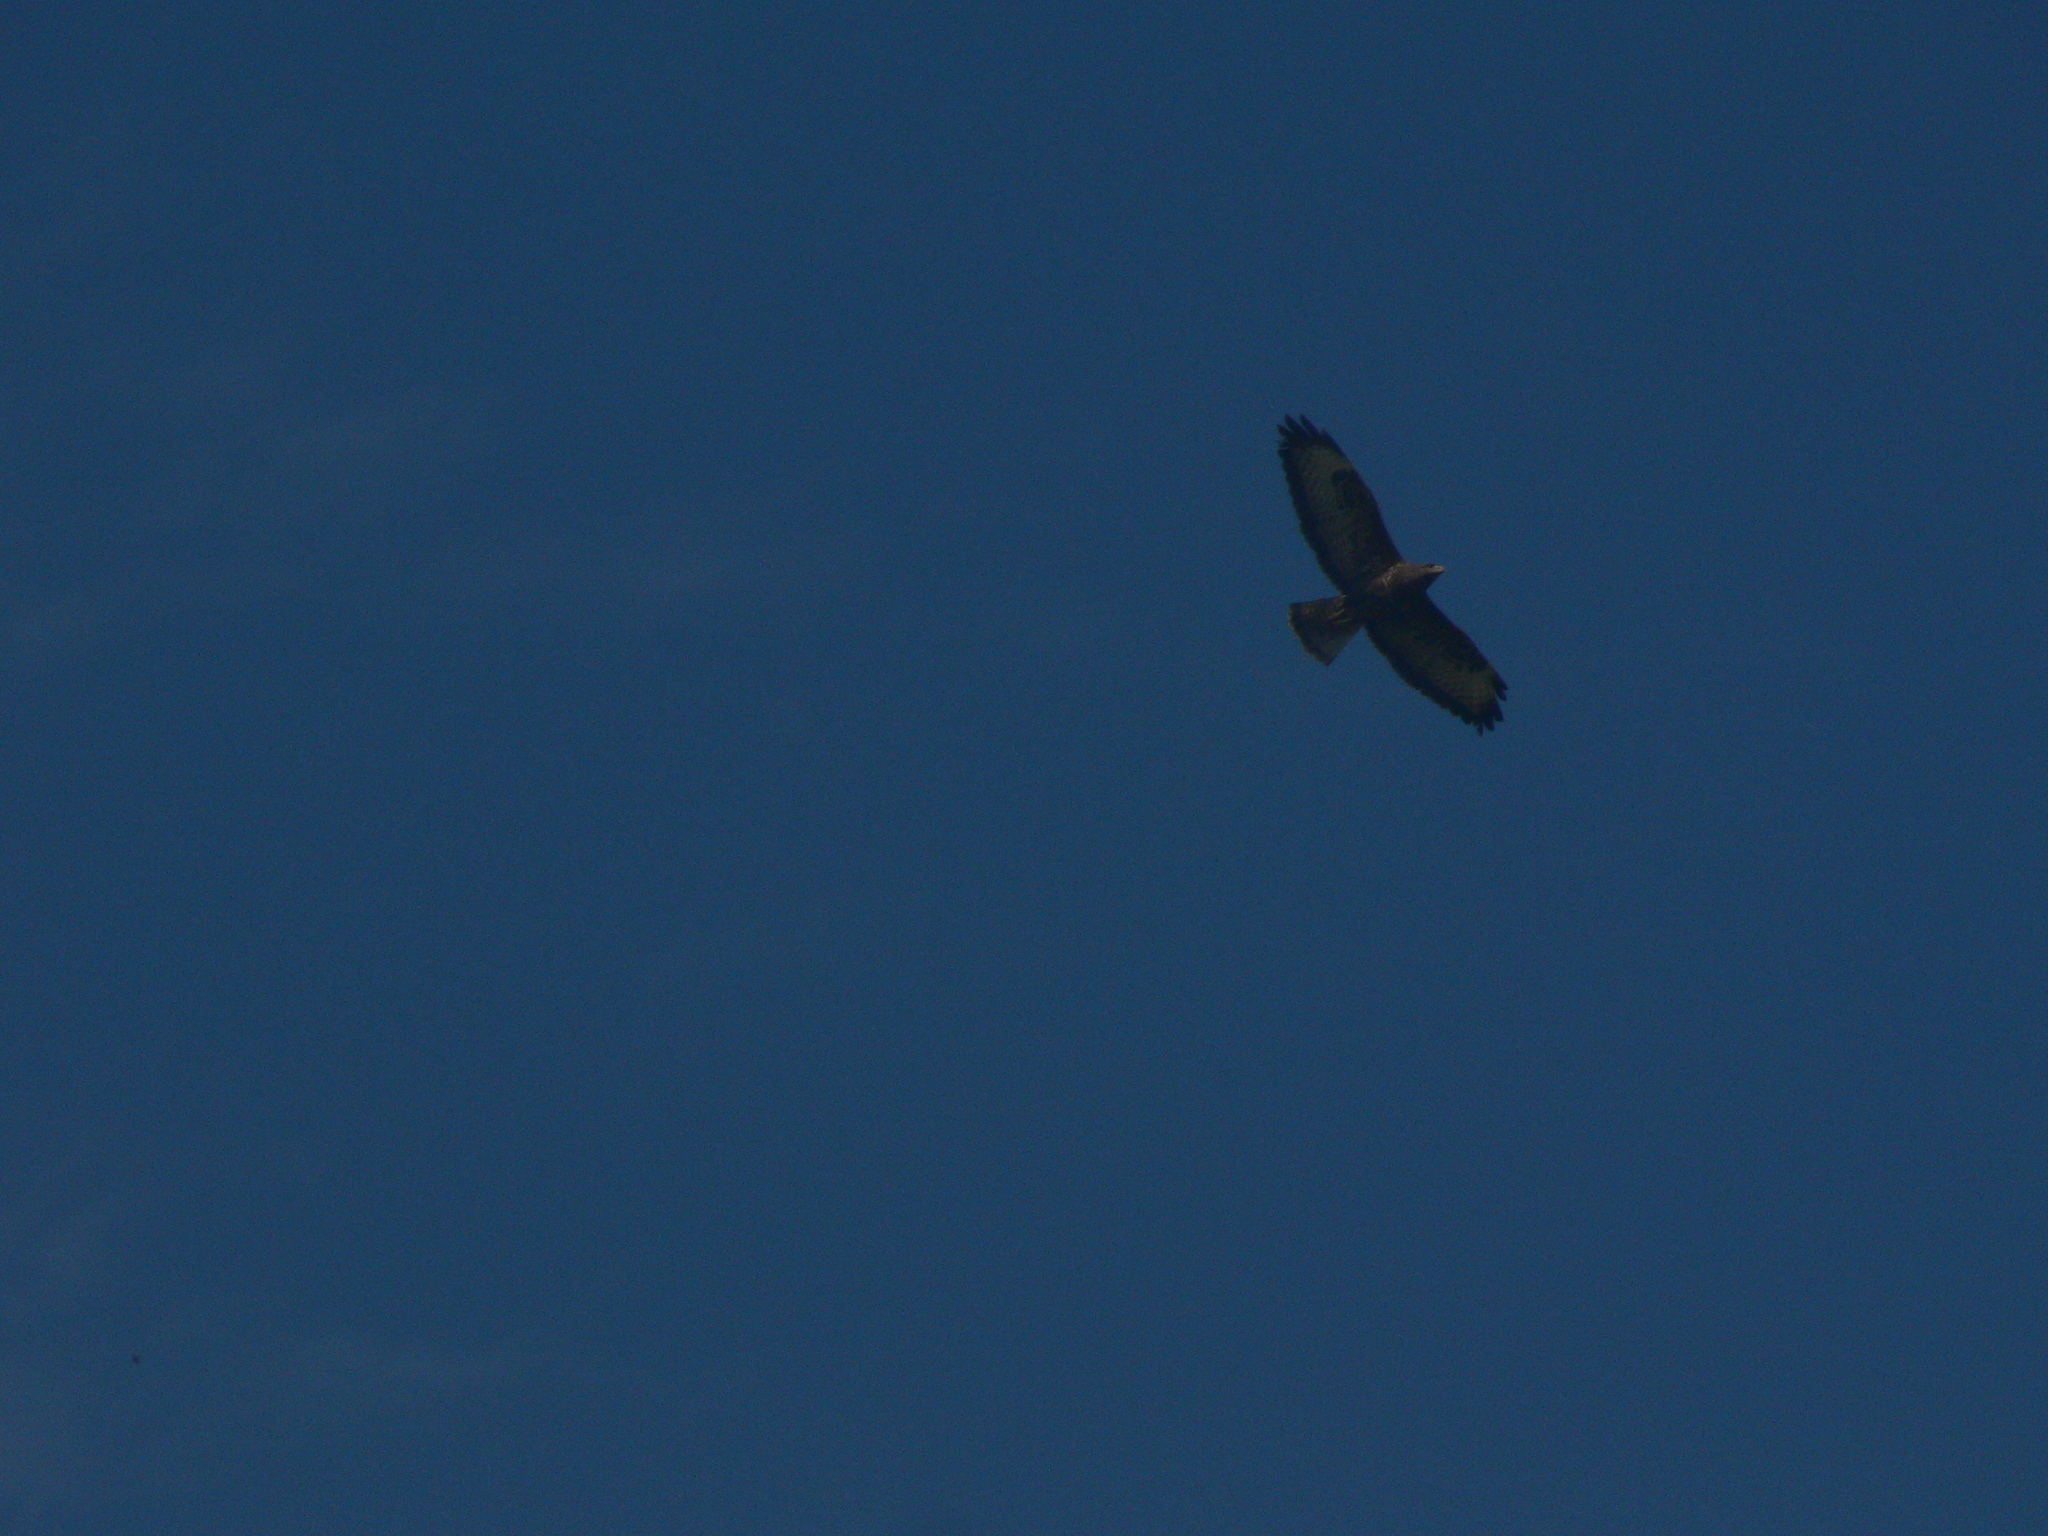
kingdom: Animalia
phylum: Chordata
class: Aves
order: Accipitriformes
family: Accipitridae
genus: Buteo
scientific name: Buteo buteo
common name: Common buzzard
